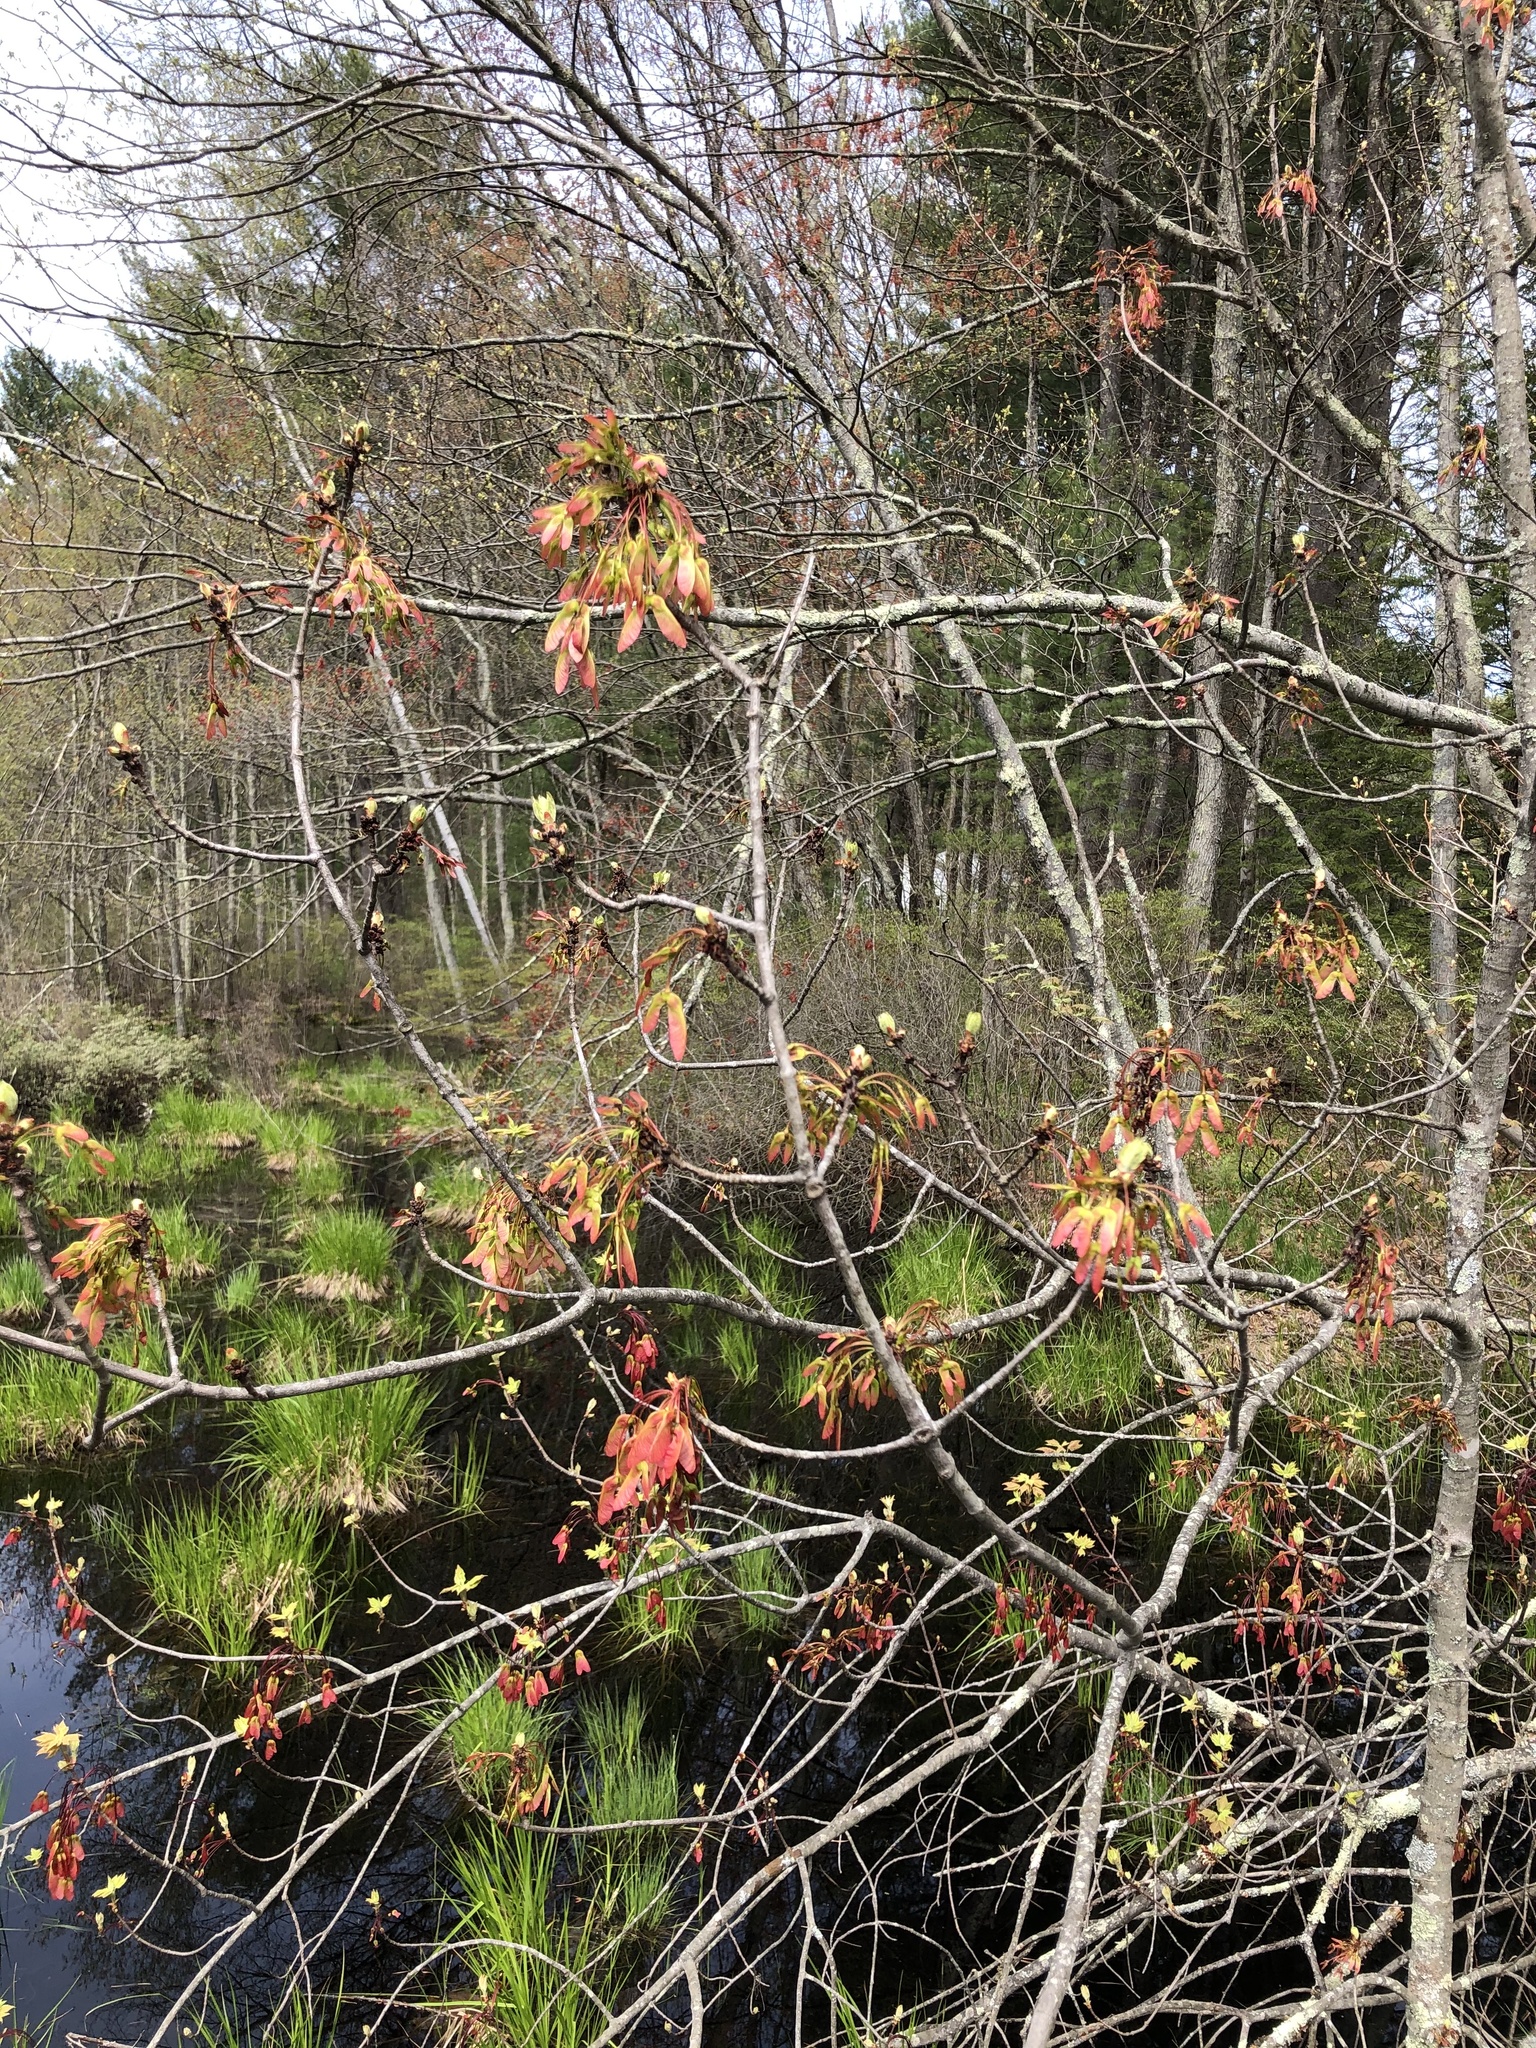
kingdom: Plantae
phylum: Tracheophyta
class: Magnoliopsida
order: Sapindales
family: Sapindaceae
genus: Acer
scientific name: Acer rubrum
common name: Red maple
